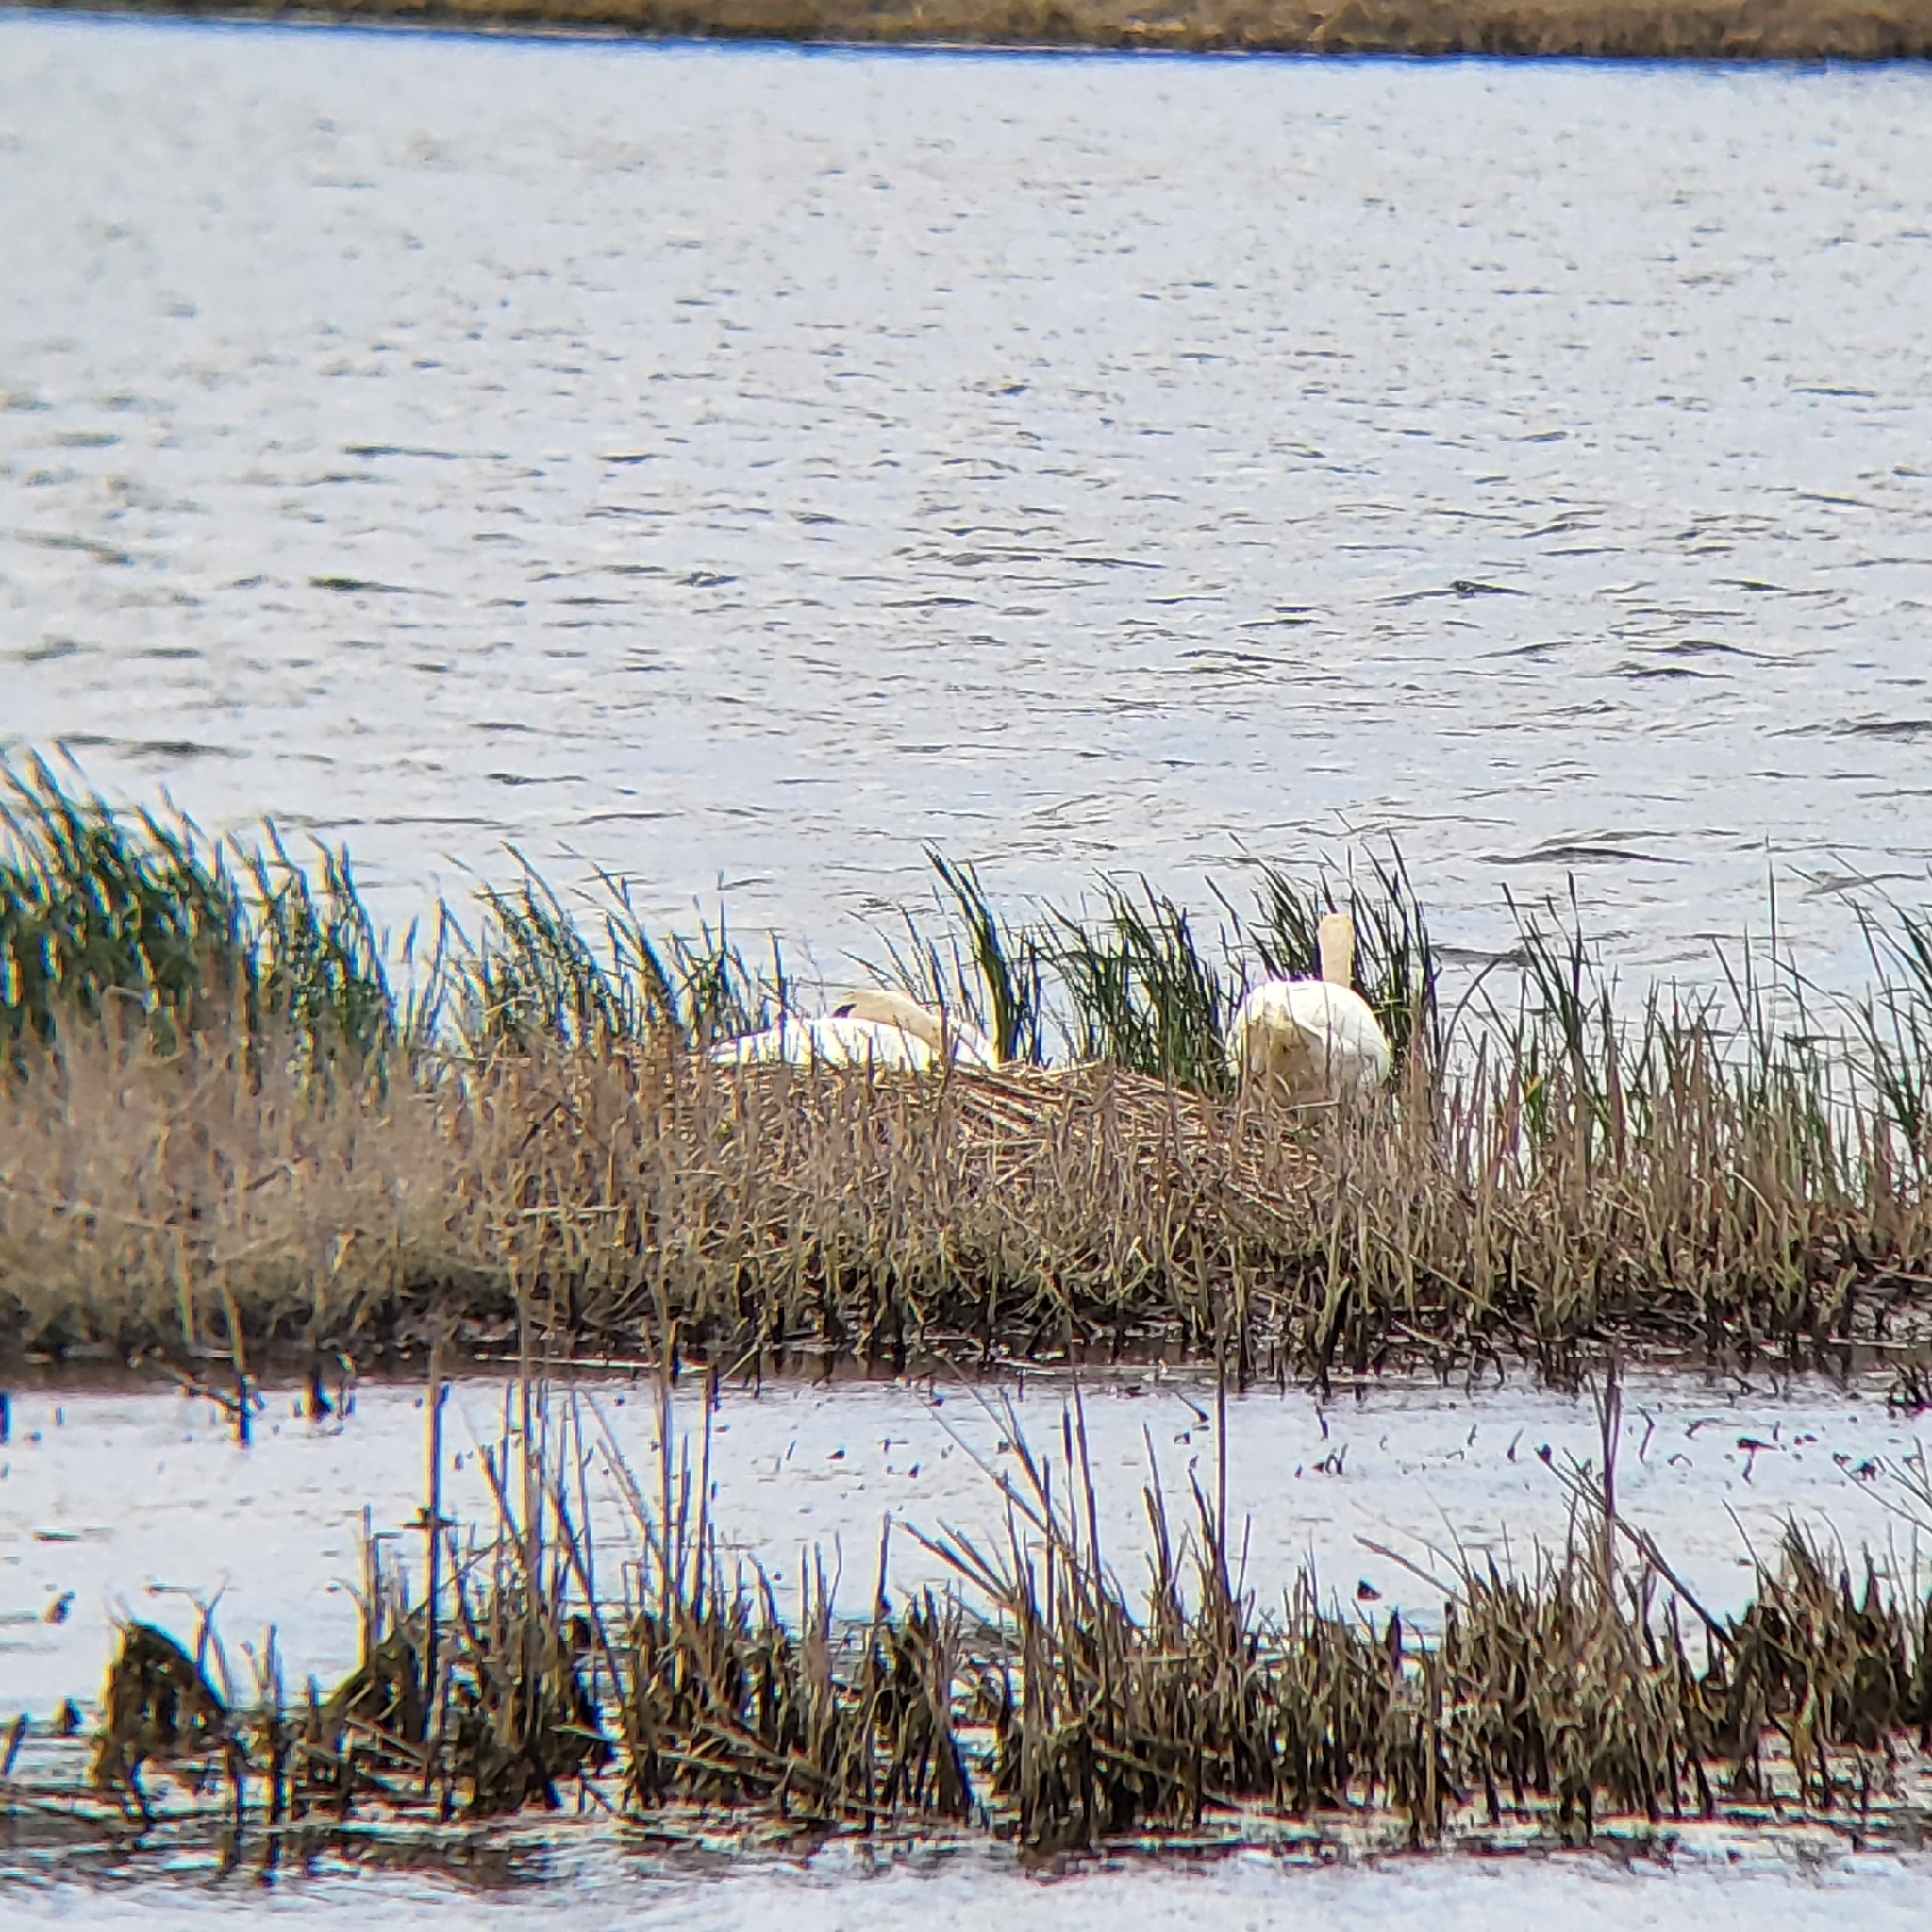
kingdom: Animalia
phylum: Chordata
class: Aves
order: Anseriformes
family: Anatidae
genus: Cygnus
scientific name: Cygnus olor
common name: Mute swan
